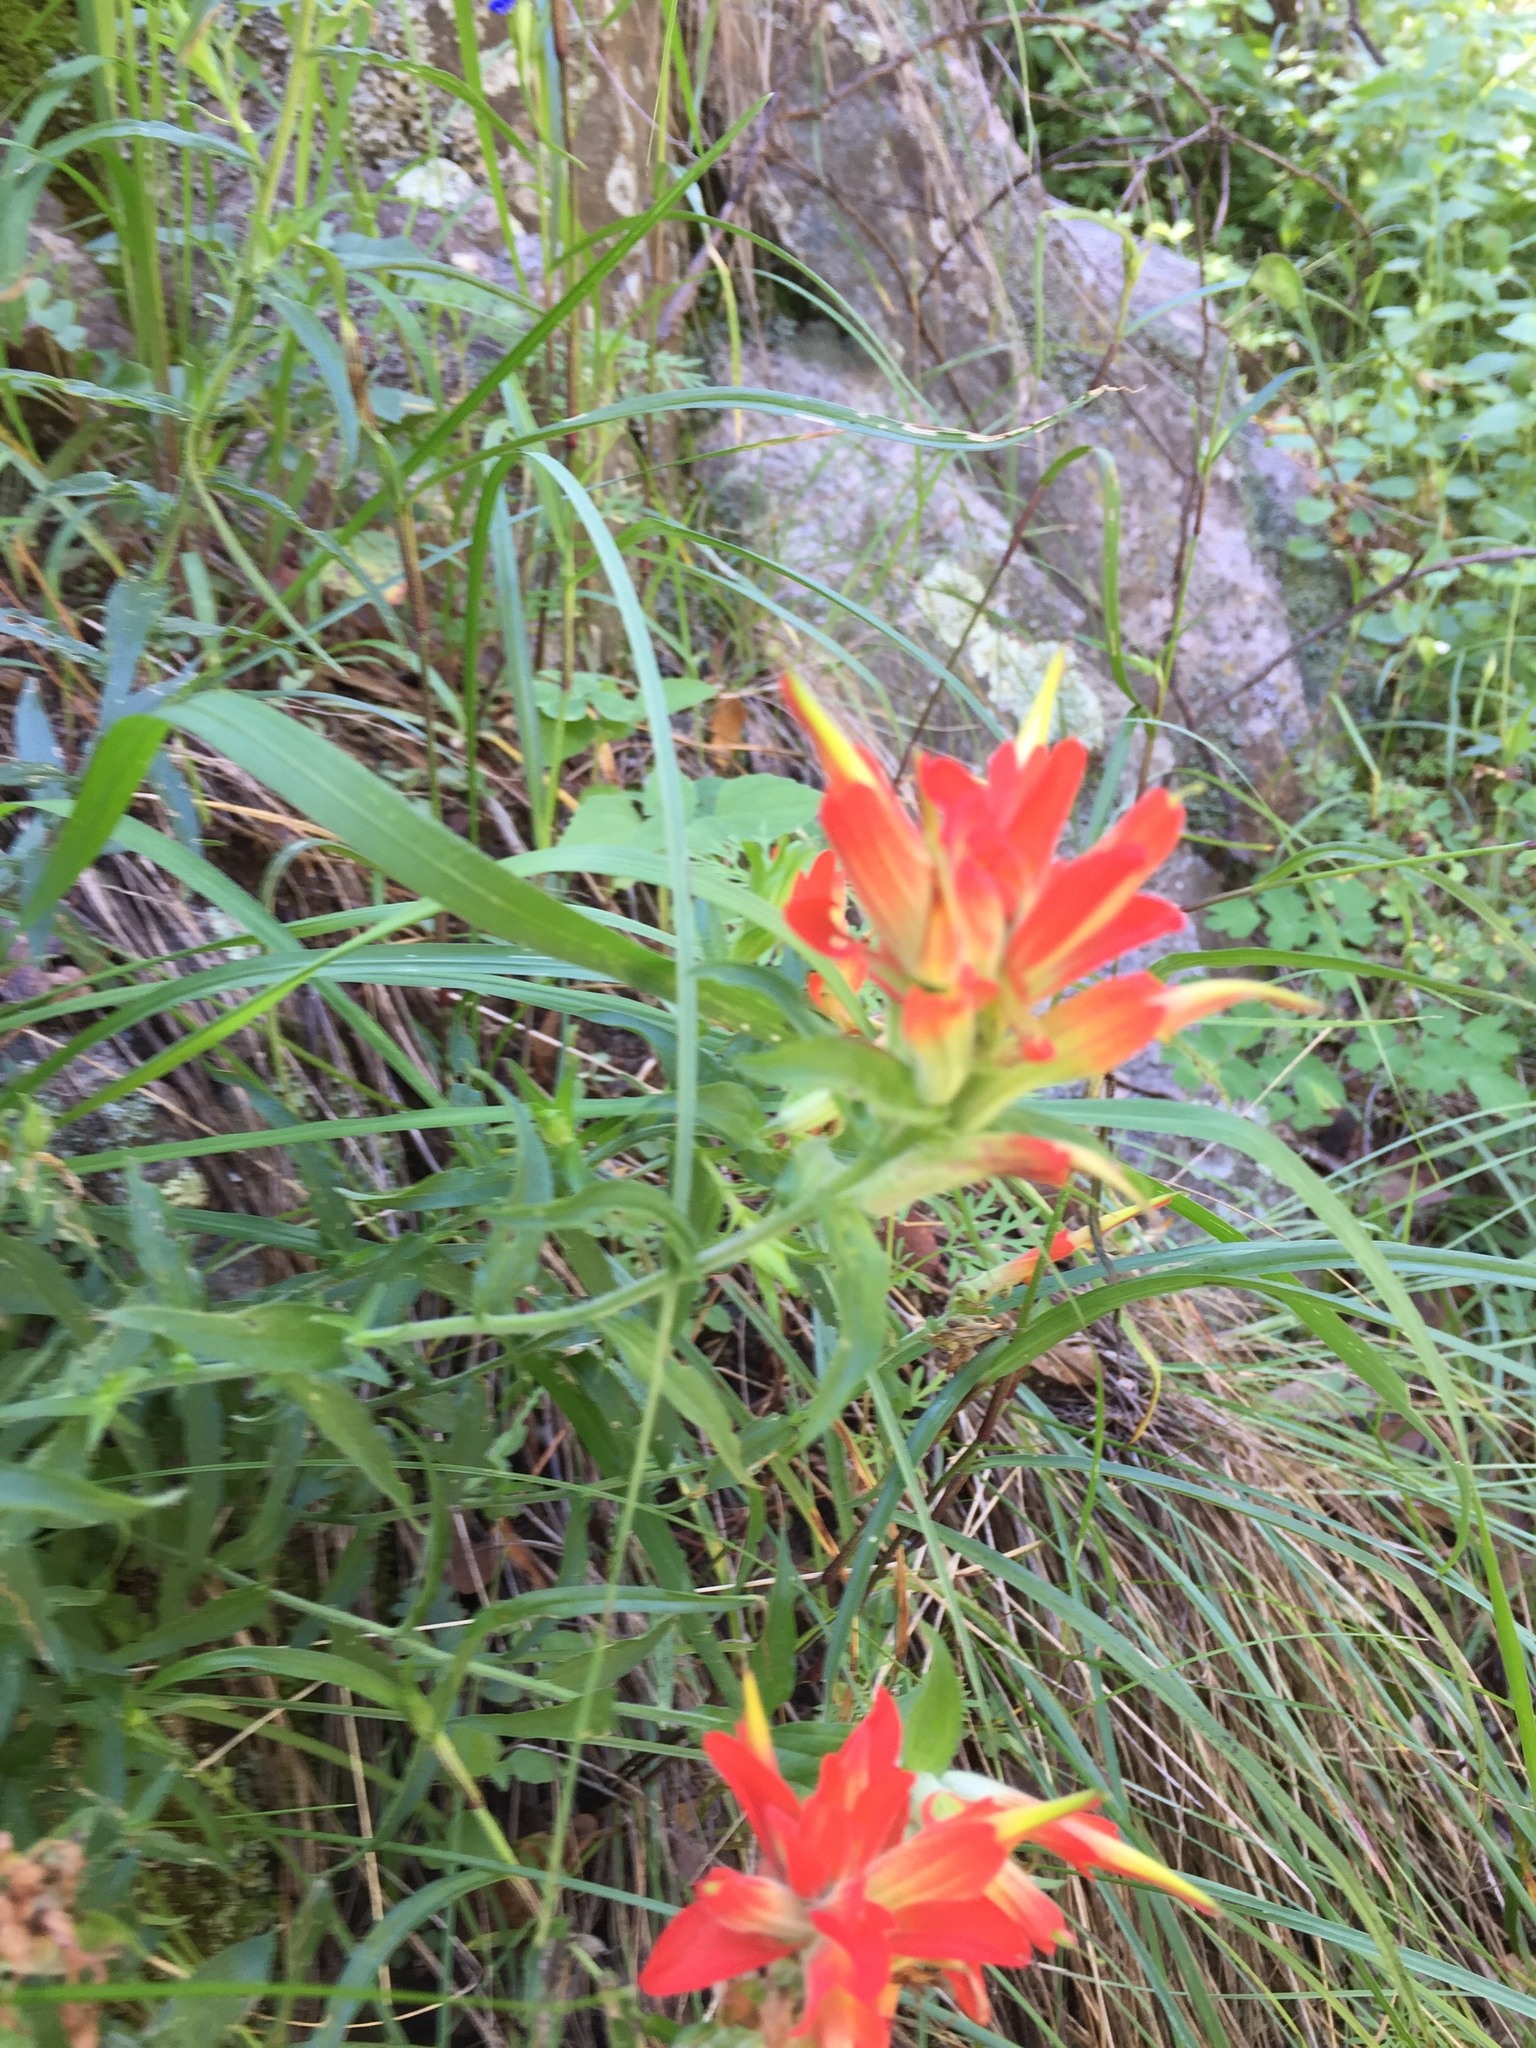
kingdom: Plantae
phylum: Tracheophyta
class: Magnoliopsida
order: Lamiales
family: Orobanchaceae
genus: Castilleja
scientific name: Castilleja tenuiflora
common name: Santa catalina indian paintbrush
